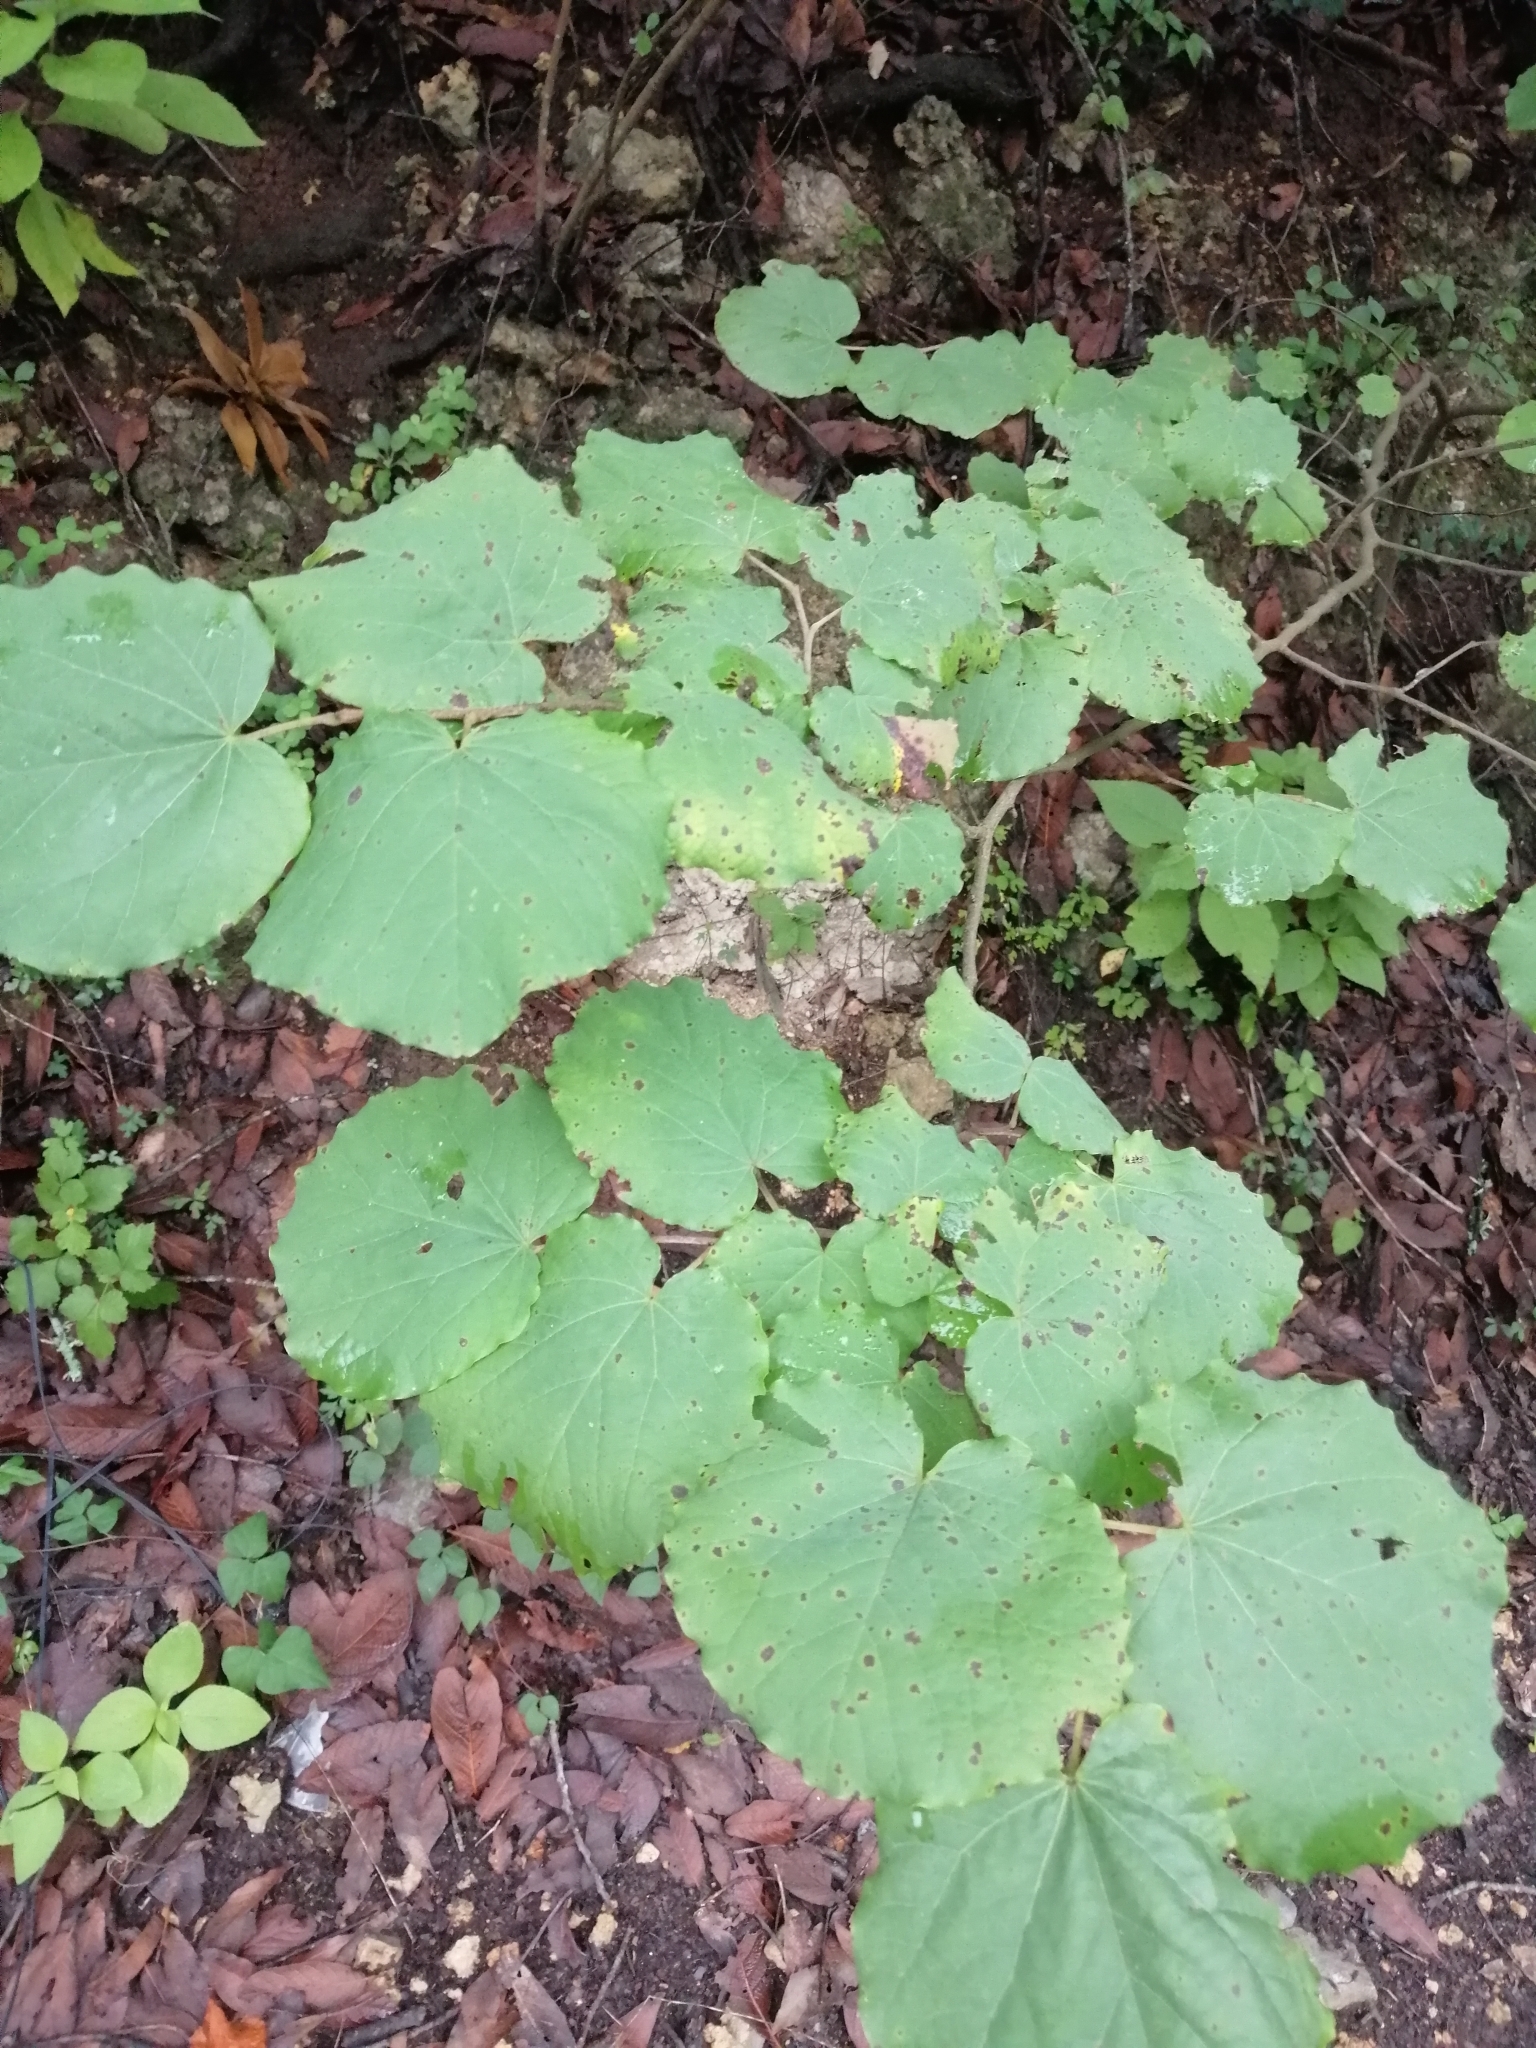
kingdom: Plantae
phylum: Tracheophyta
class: Magnoliopsida
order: Fabales
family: Fabaceae
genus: Cercis
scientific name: Cercis canadensis
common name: Eastern redbud
